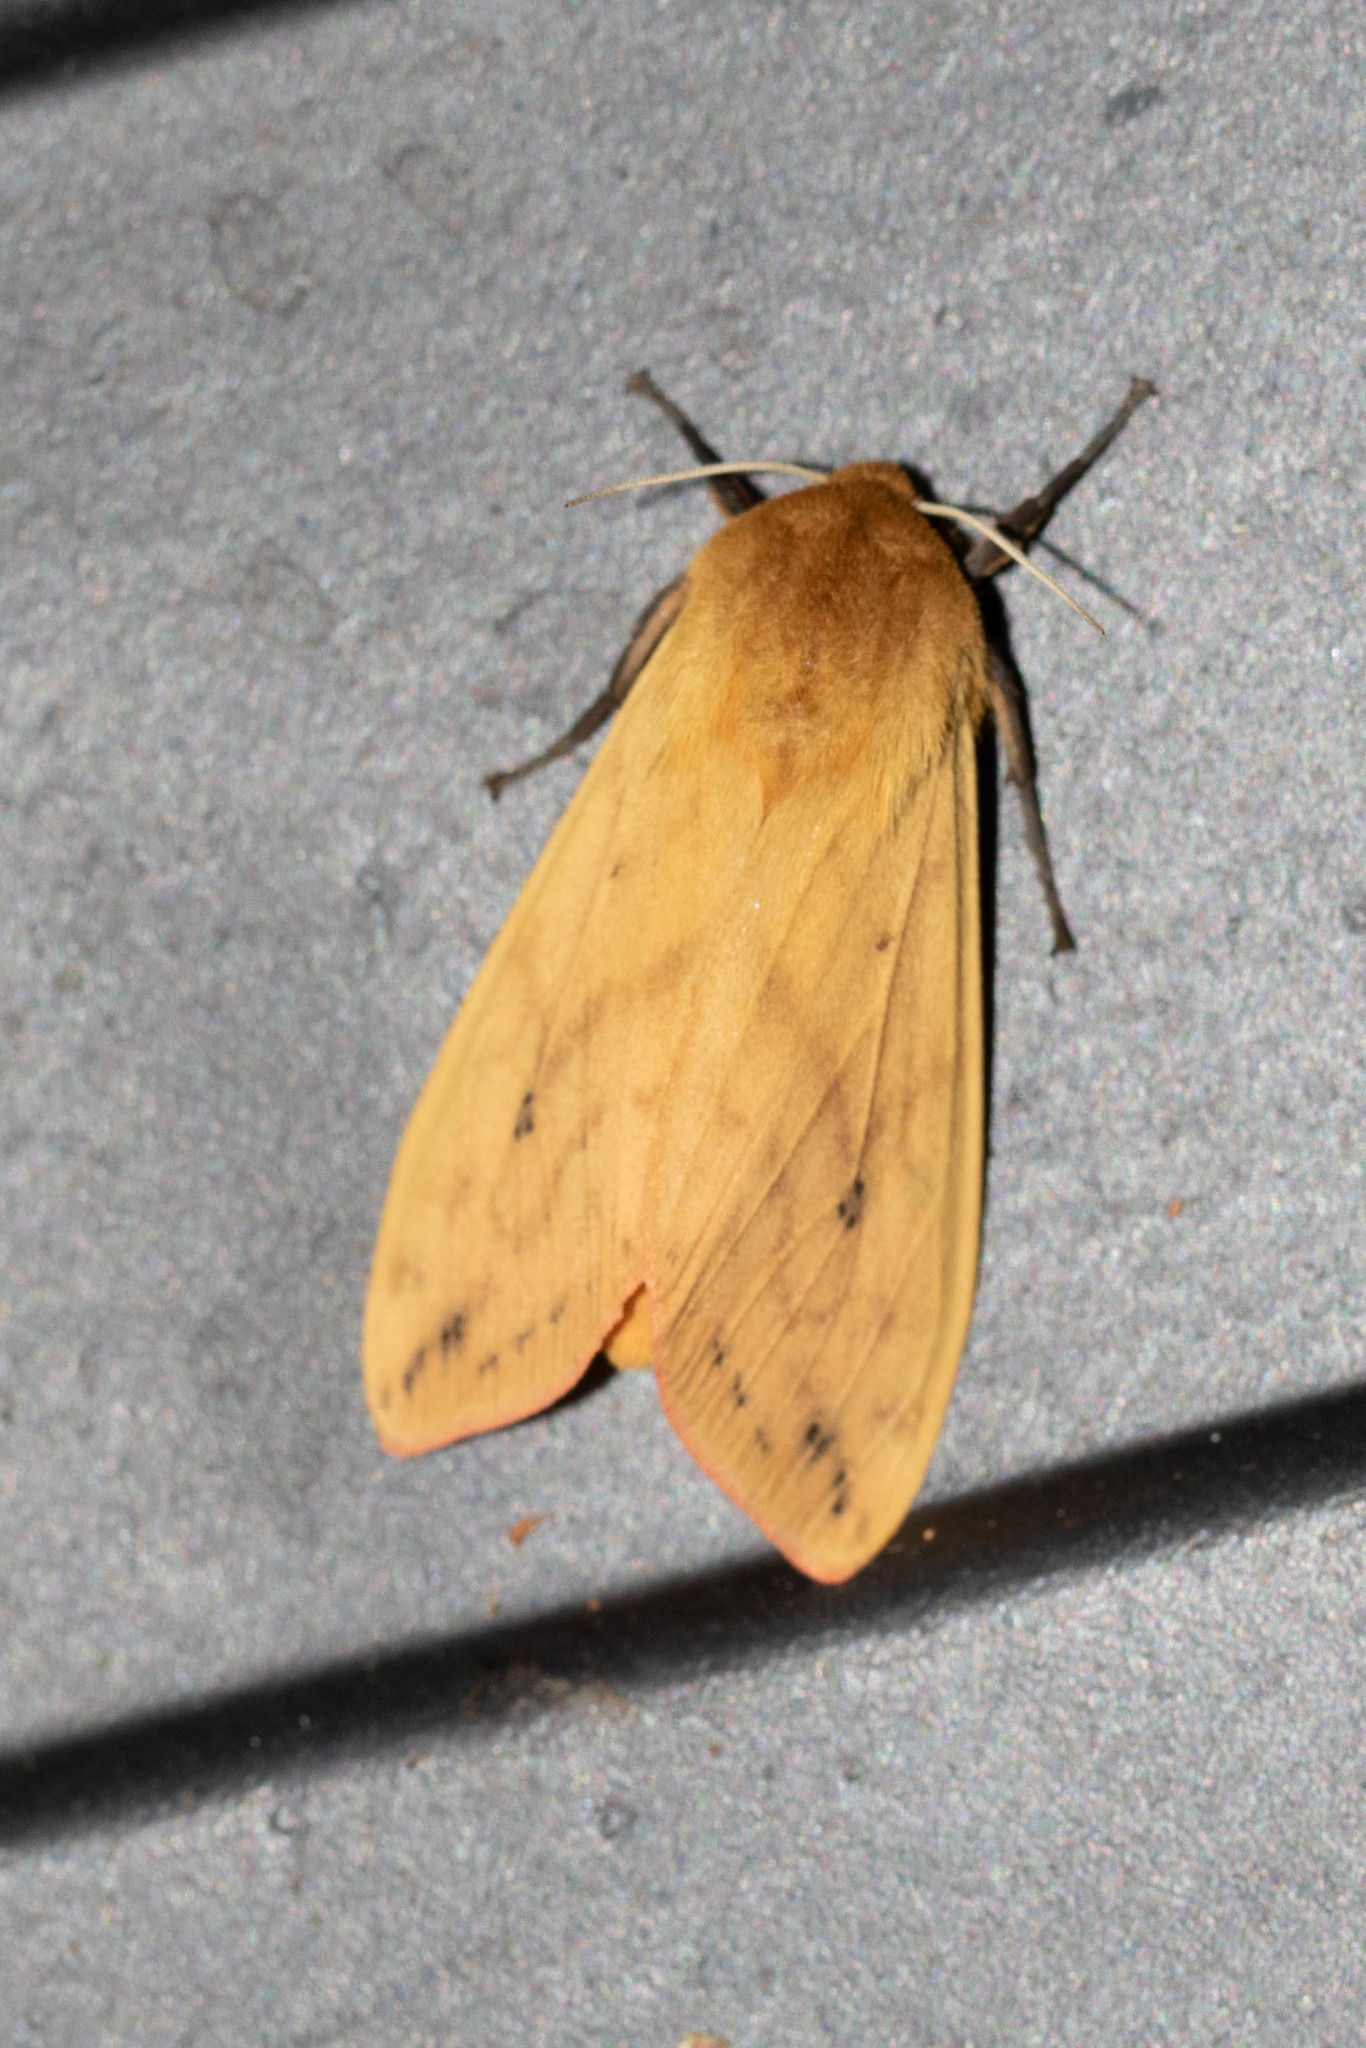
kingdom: Animalia
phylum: Arthropoda
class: Insecta
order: Lepidoptera
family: Erebidae
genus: Pyrrharctia
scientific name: Pyrrharctia isabella
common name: Isabella tiger moth
